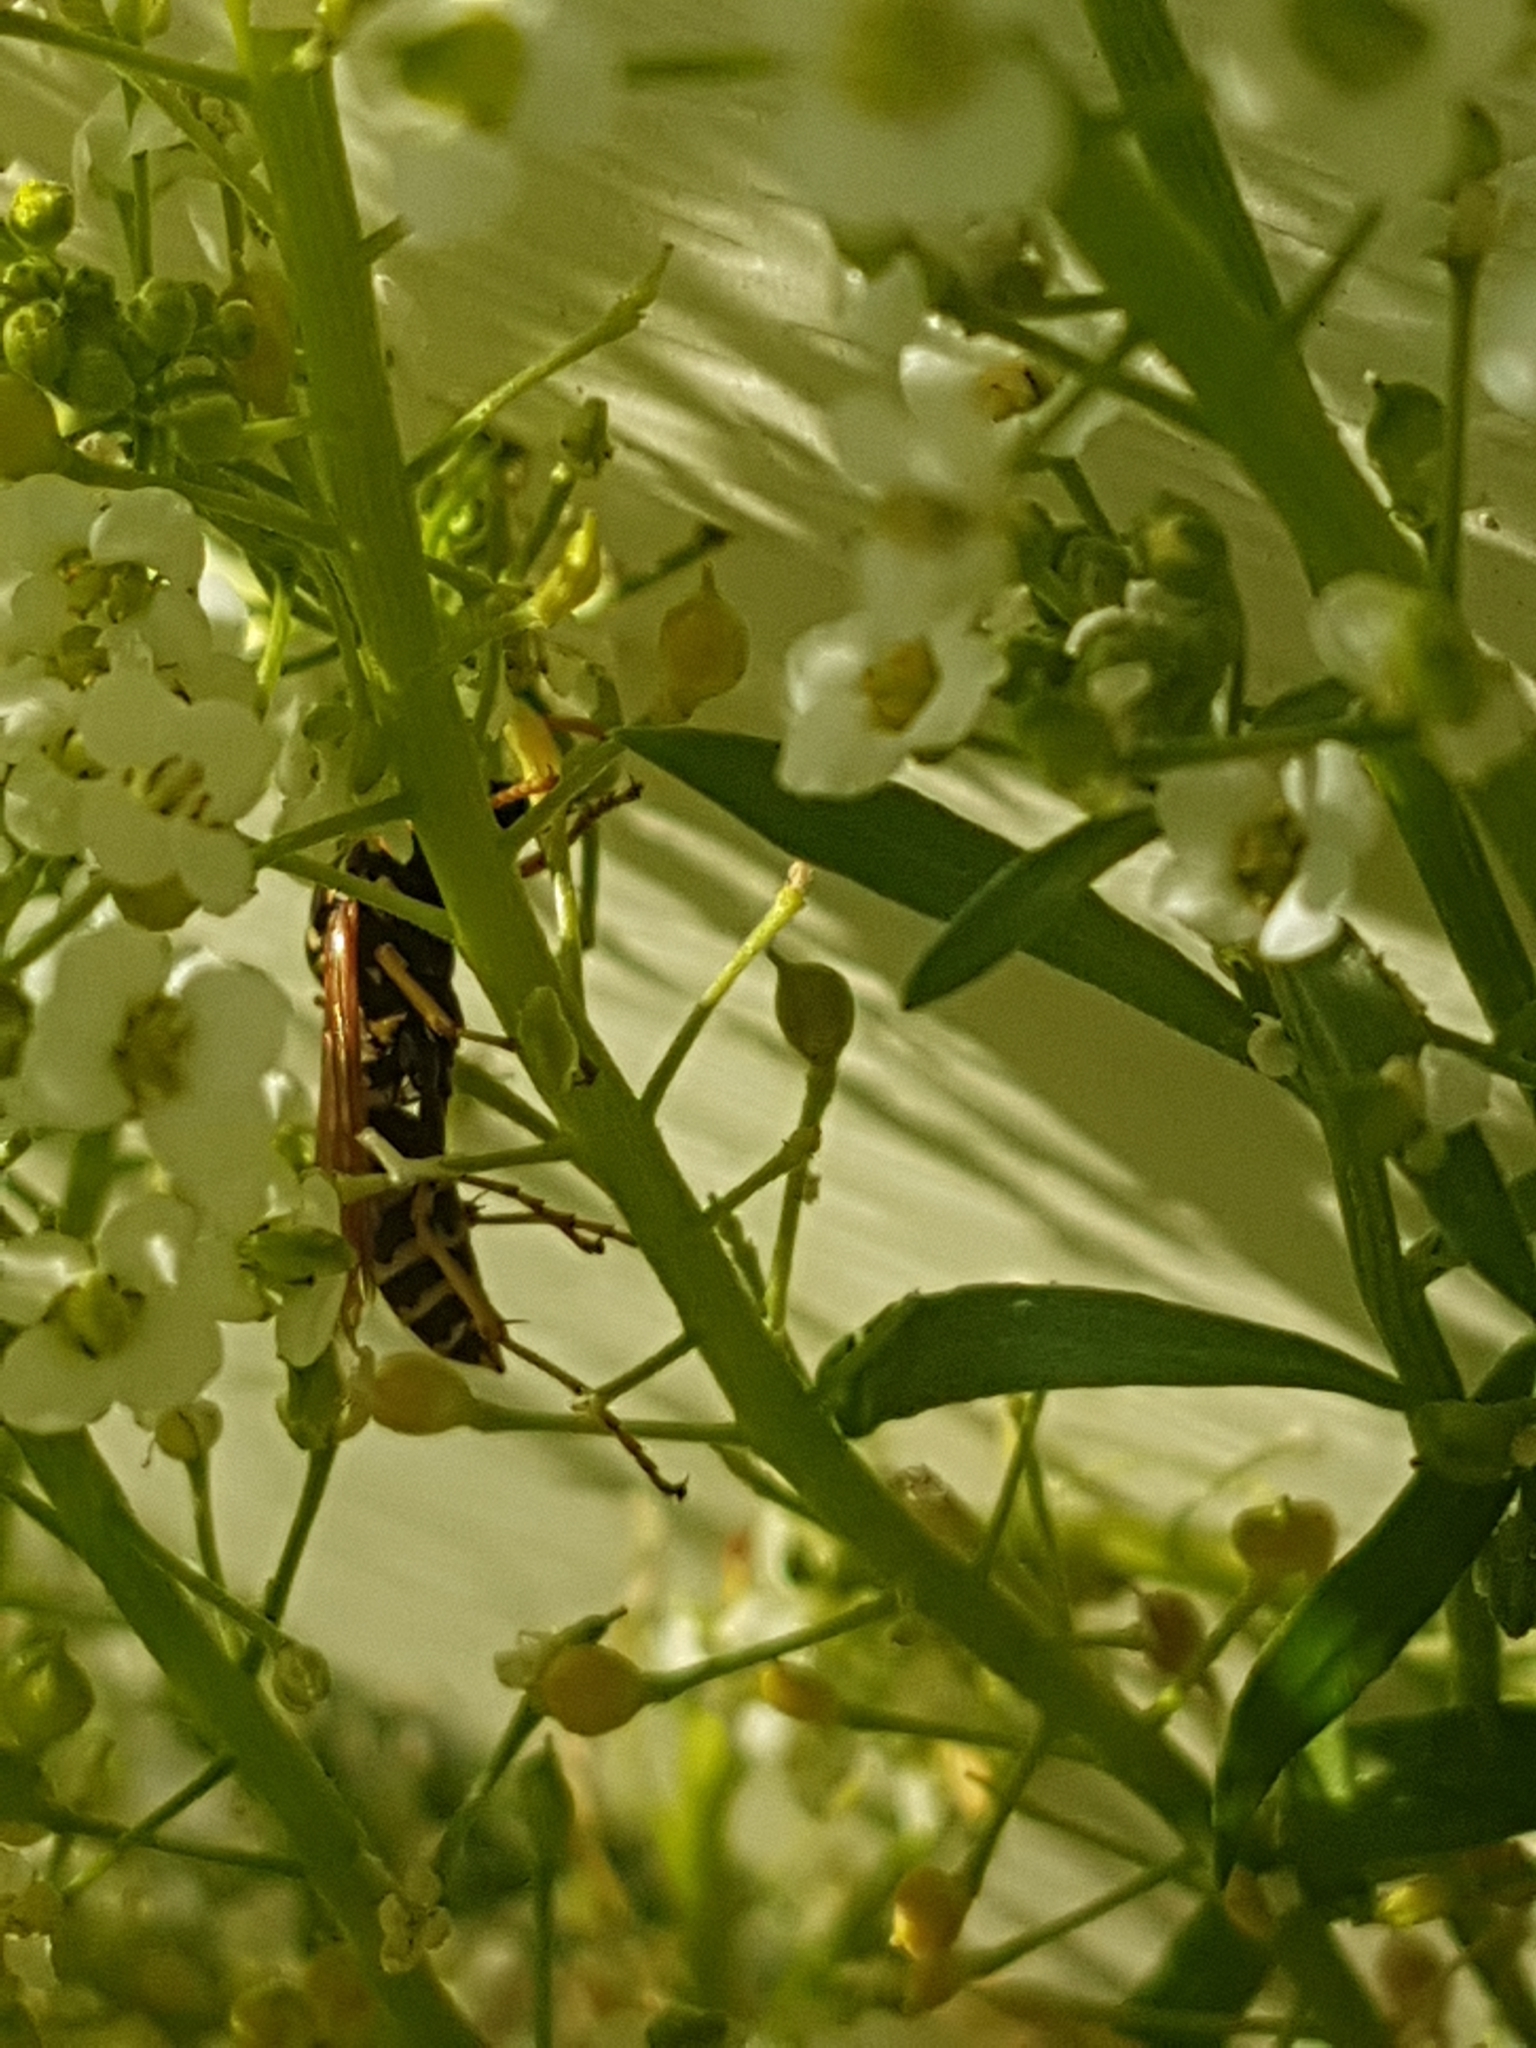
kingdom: Animalia
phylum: Arthropoda
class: Insecta
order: Hymenoptera
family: Eumenidae
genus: Polistes
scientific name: Polistes dominula
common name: Paper wasp
